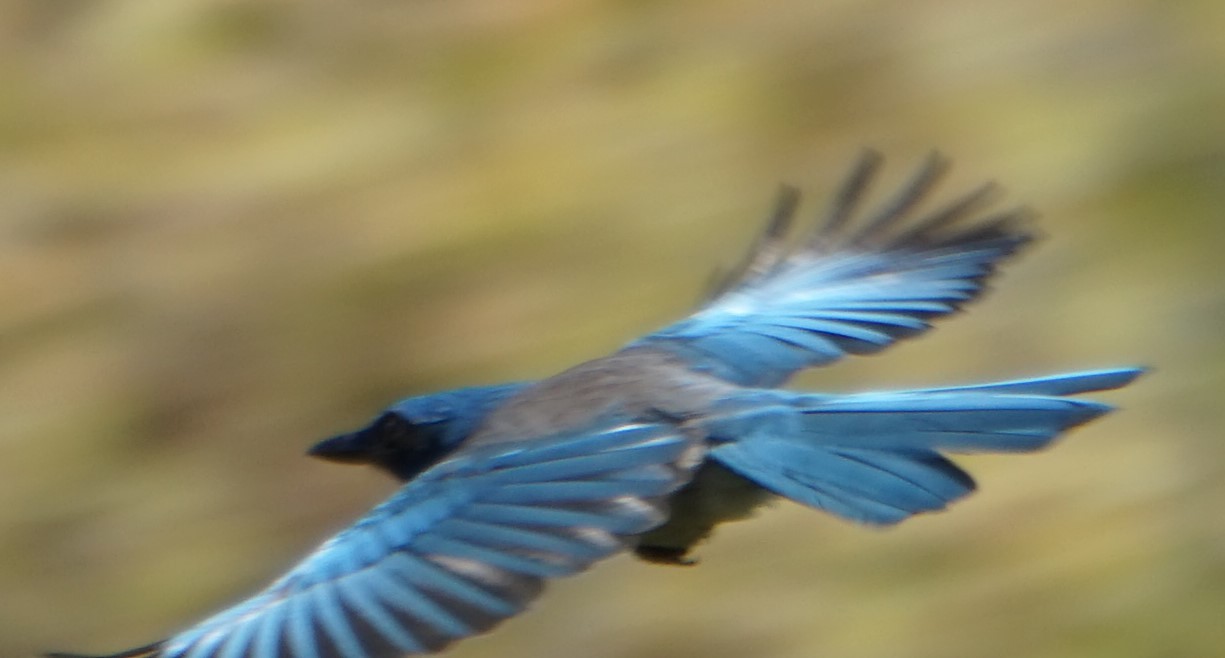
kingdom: Animalia
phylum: Chordata
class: Aves
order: Passeriformes
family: Corvidae
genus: Aphelocoma
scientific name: Aphelocoma californica
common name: California scrub-jay
